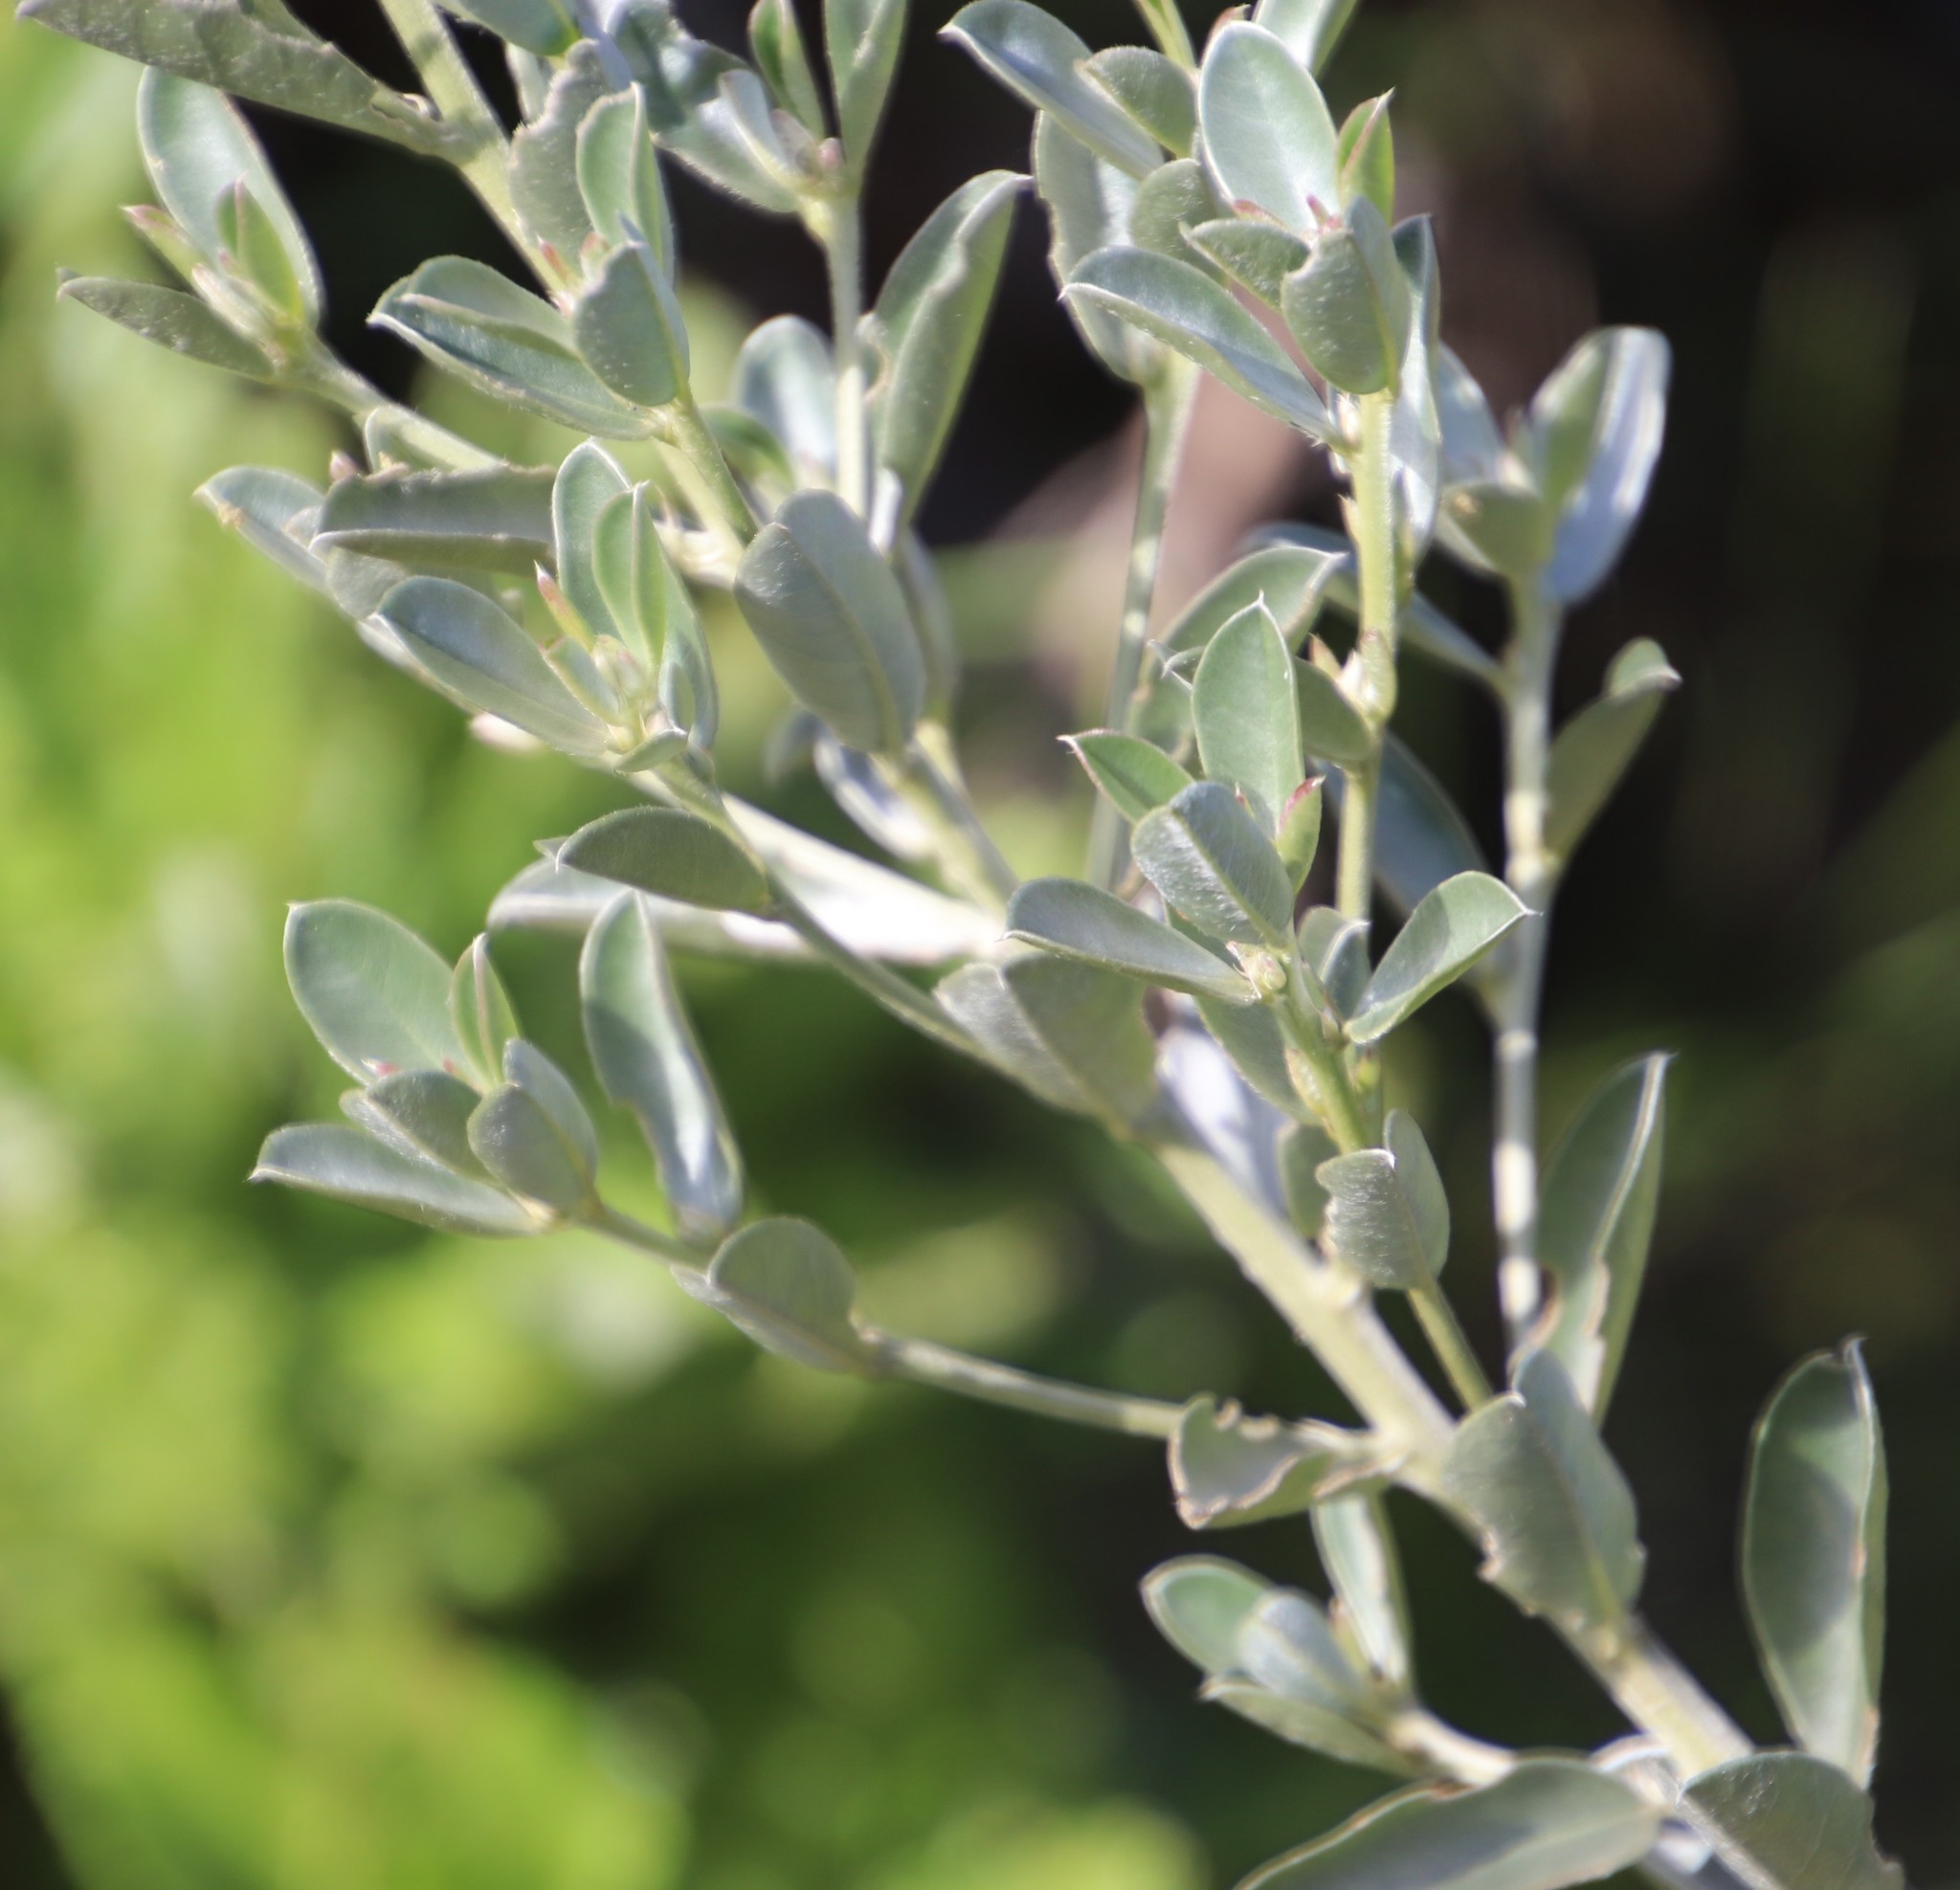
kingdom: Plantae
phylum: Tracheophyta
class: Magnoliopsida
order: Fabales
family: Fabaceae
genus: Podalyria
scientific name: Podalyria sericea
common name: Silver podalyria
